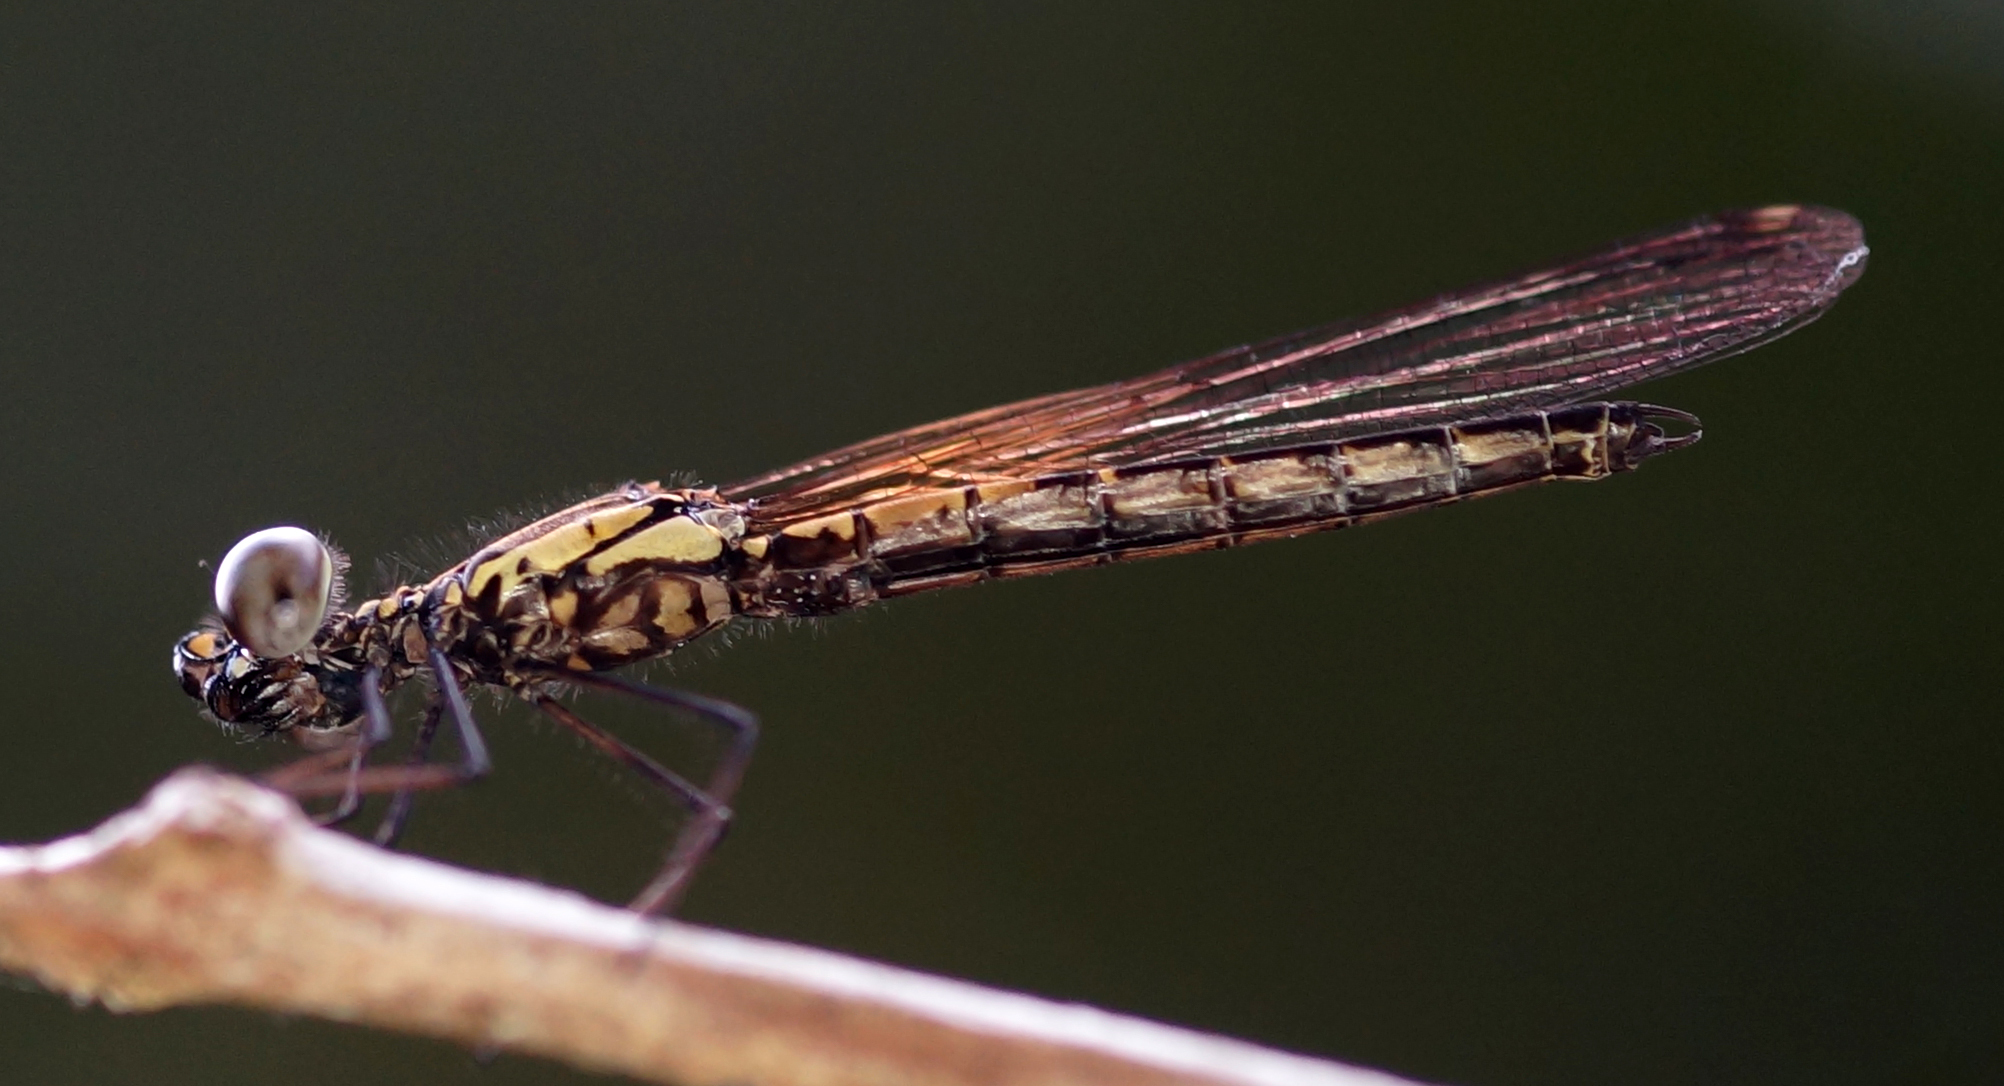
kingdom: Animalia
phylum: Arthropoda
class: Insecta
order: Odonata
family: Chlorocyphidae
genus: Libellago
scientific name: Libellago lineata
